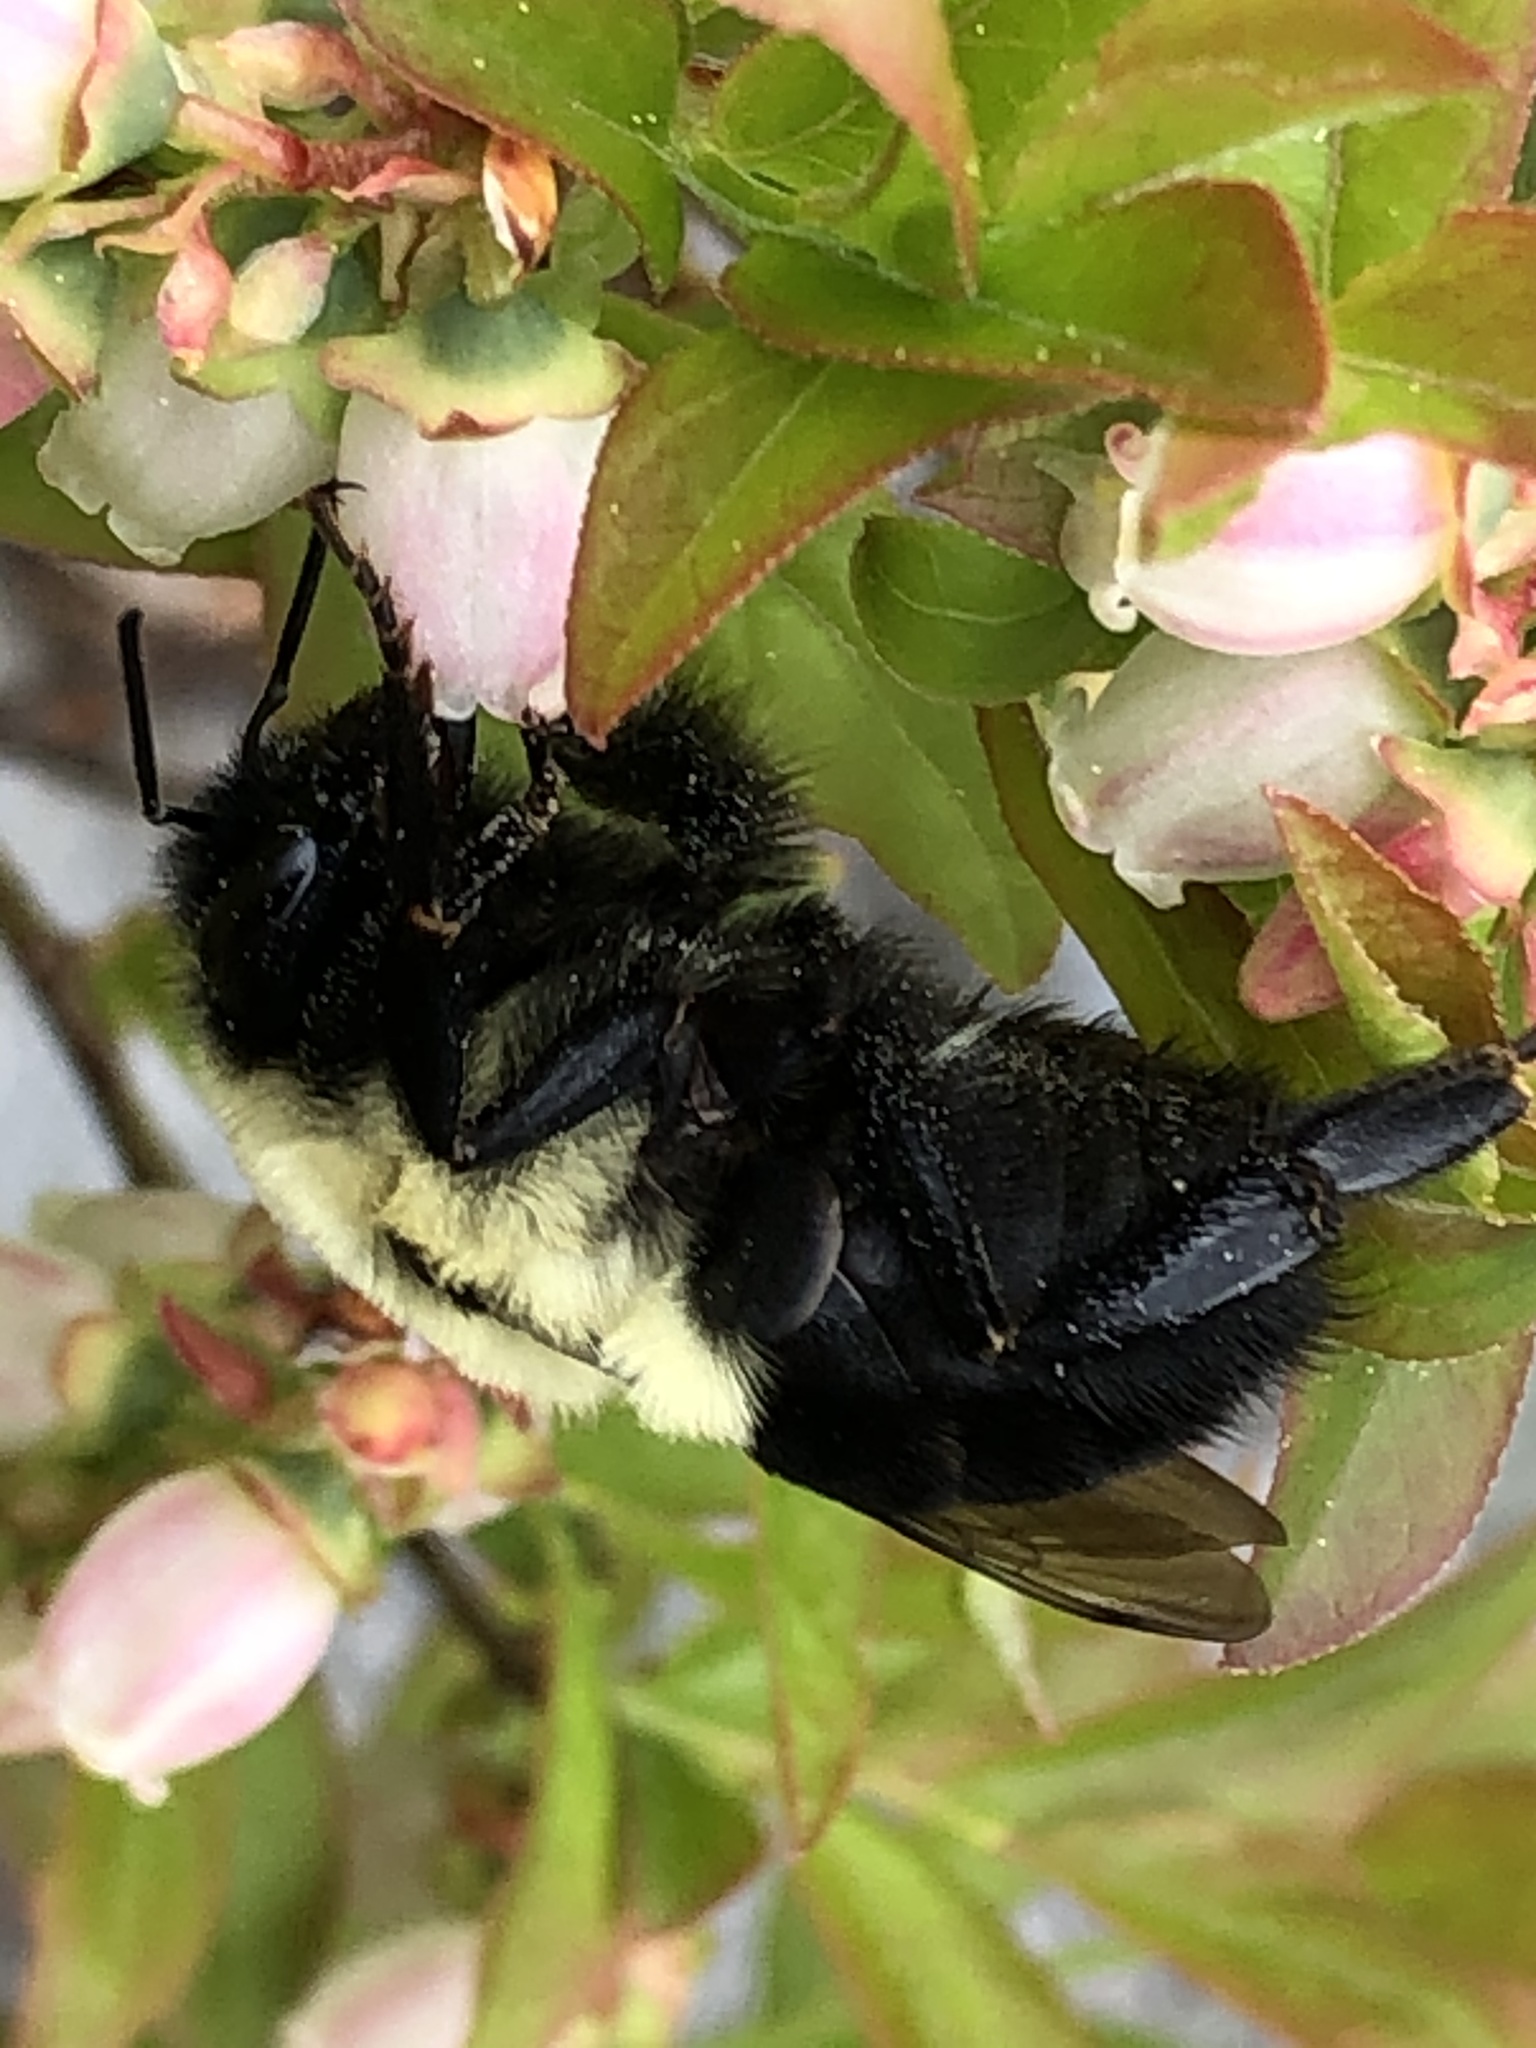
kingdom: Animalia
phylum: Arthropoda
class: Insecta
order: Hymenoptera
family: Apidae
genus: Bombus
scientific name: Bombus impatiens
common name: Common eastern bumble bee
